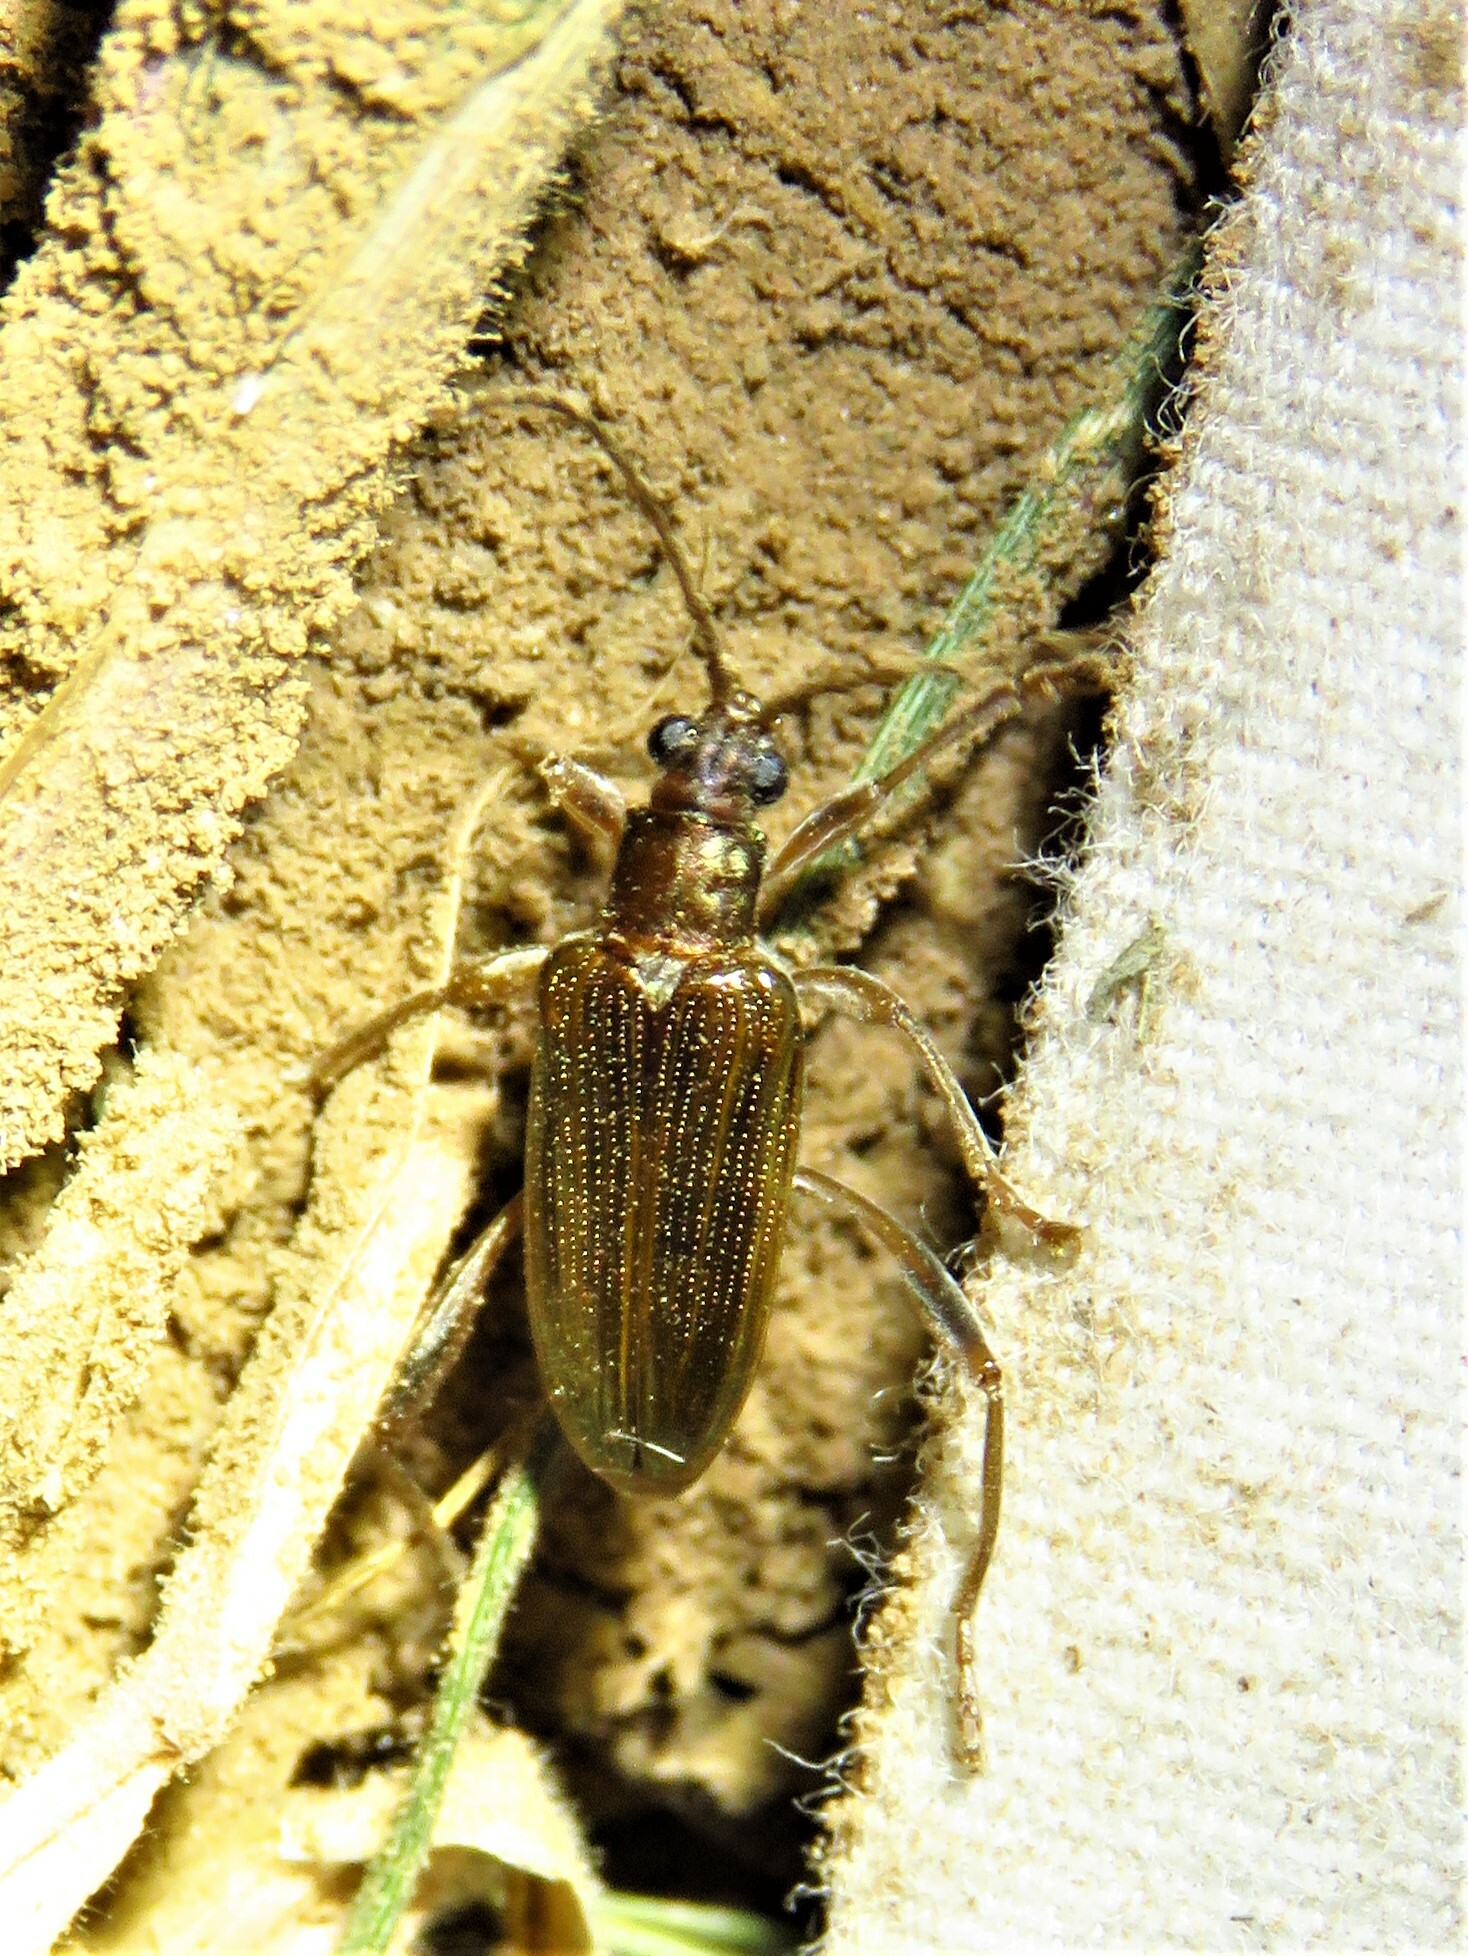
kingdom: Animalia
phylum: Arthropoda
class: Insecta
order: Coleoptera
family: Chrysomelidae
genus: Donacia
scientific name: Donacia hypoleuca
